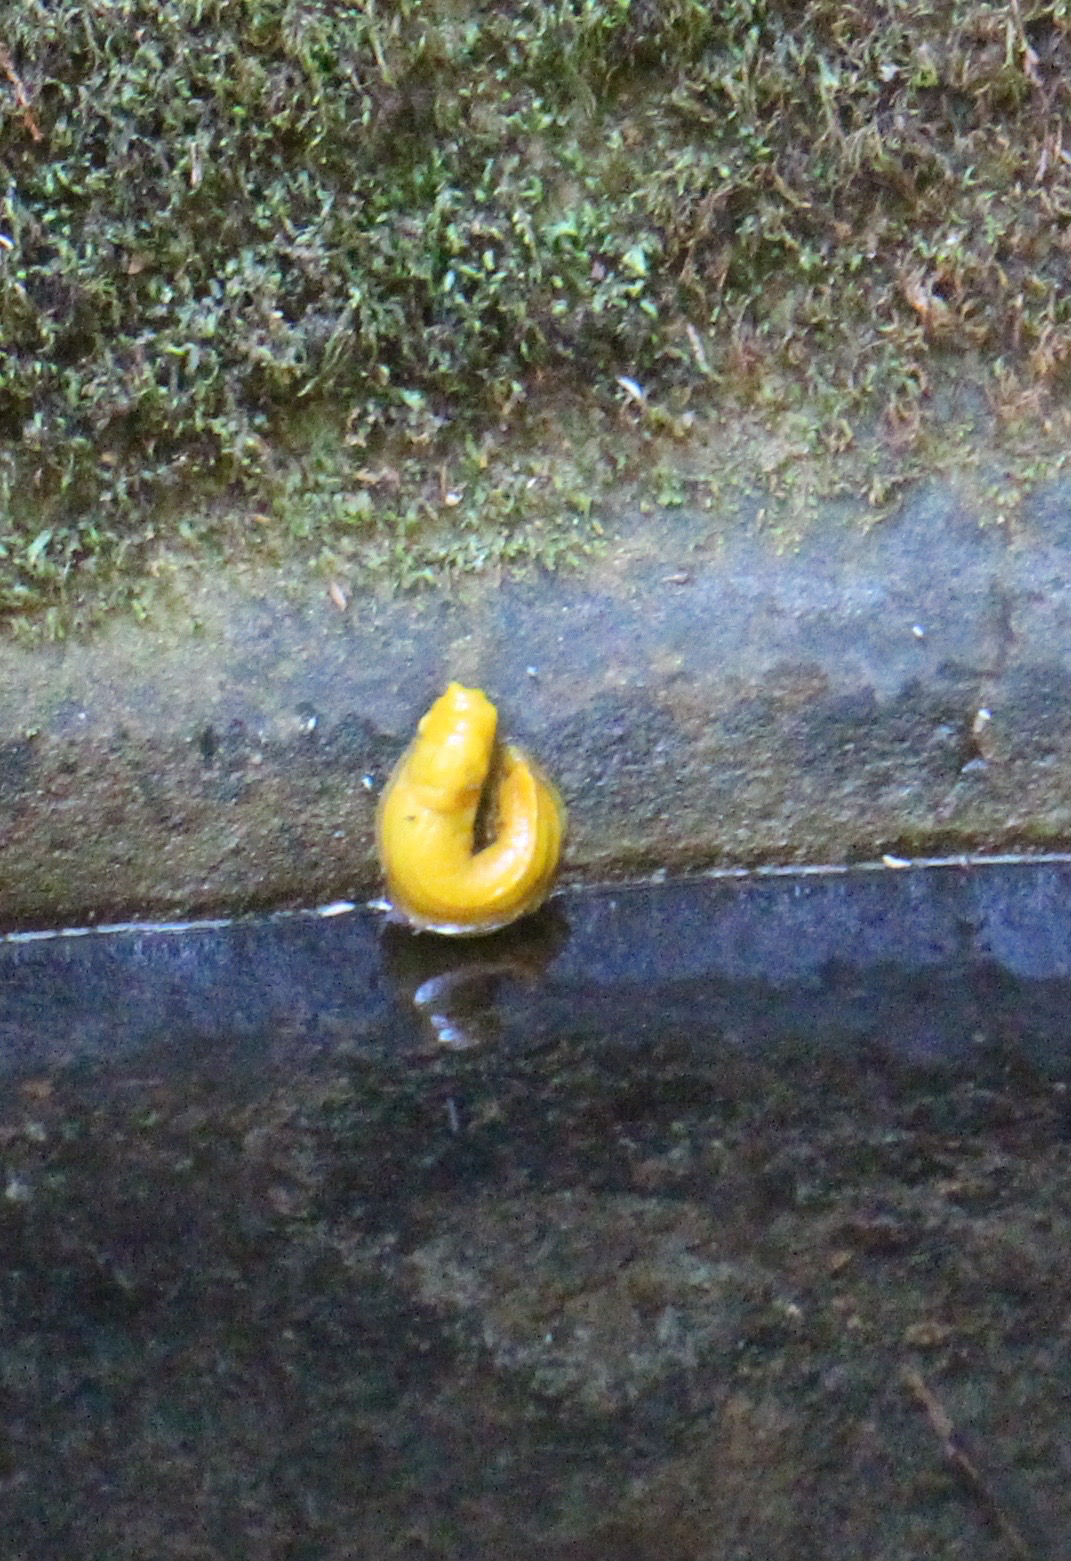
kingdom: Animalia
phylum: Mollusca
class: Gastropoda
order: Stylommatophora
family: Ariolimacidae
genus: Ariolimax
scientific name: Ariolimax californicus
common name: California banana slug
